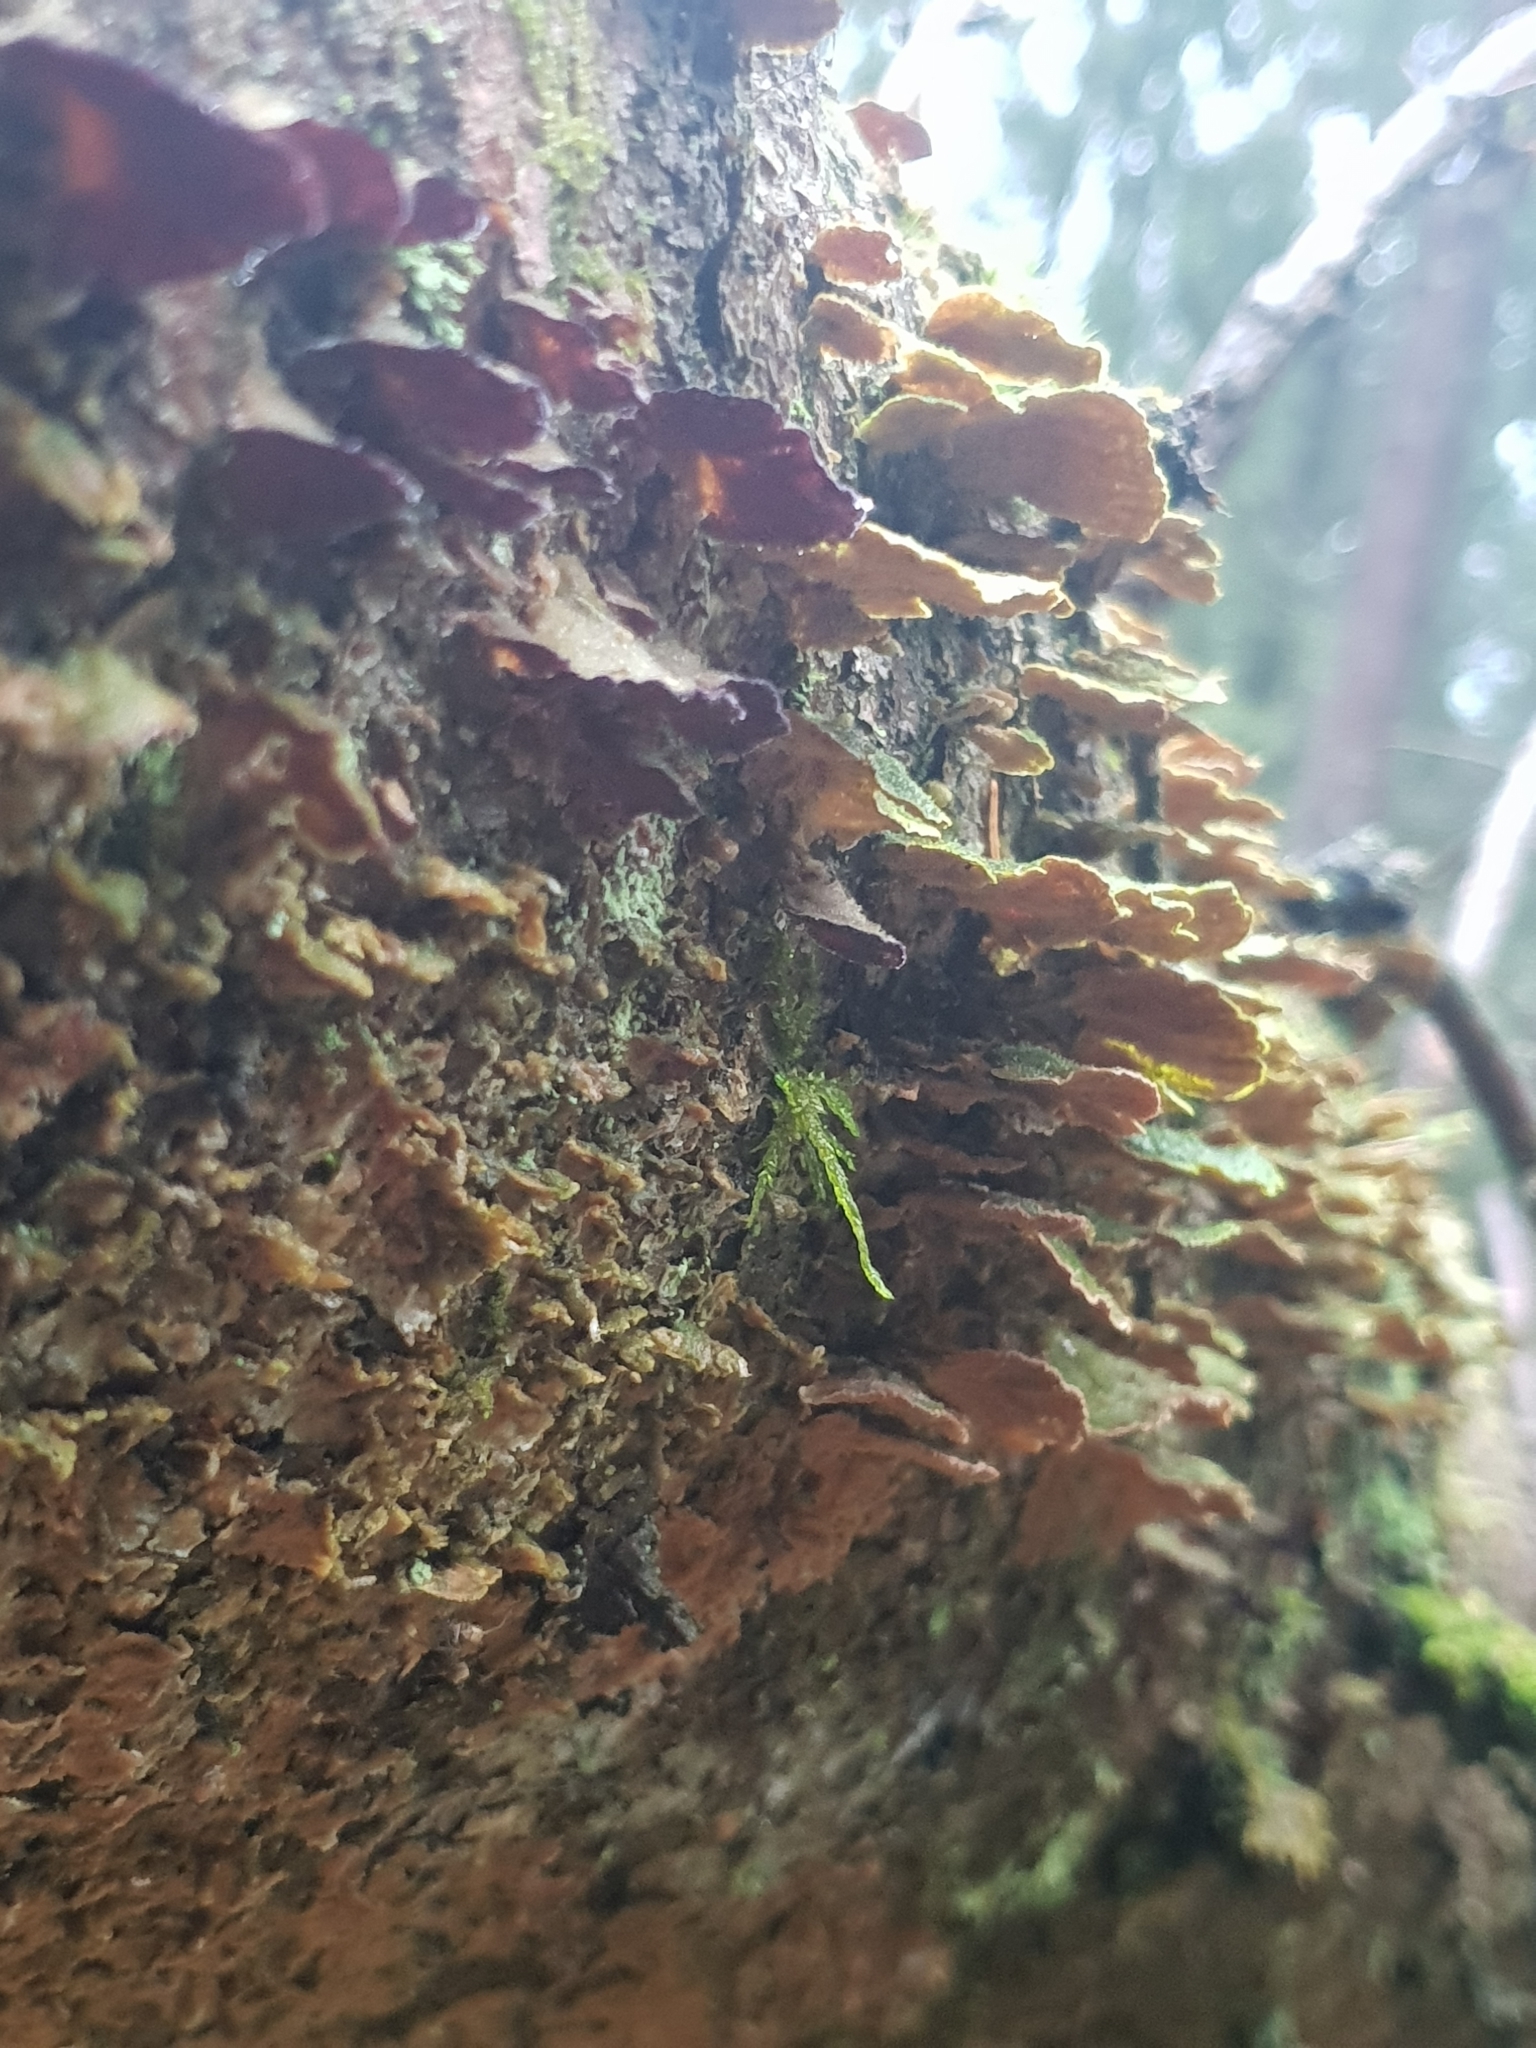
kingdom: Fungi
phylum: Basidiomycota
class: Agaricomycetes
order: Hymenochaetales
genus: Trichaptum
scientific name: Trichaptum abietinum
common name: Purplepore bracket
